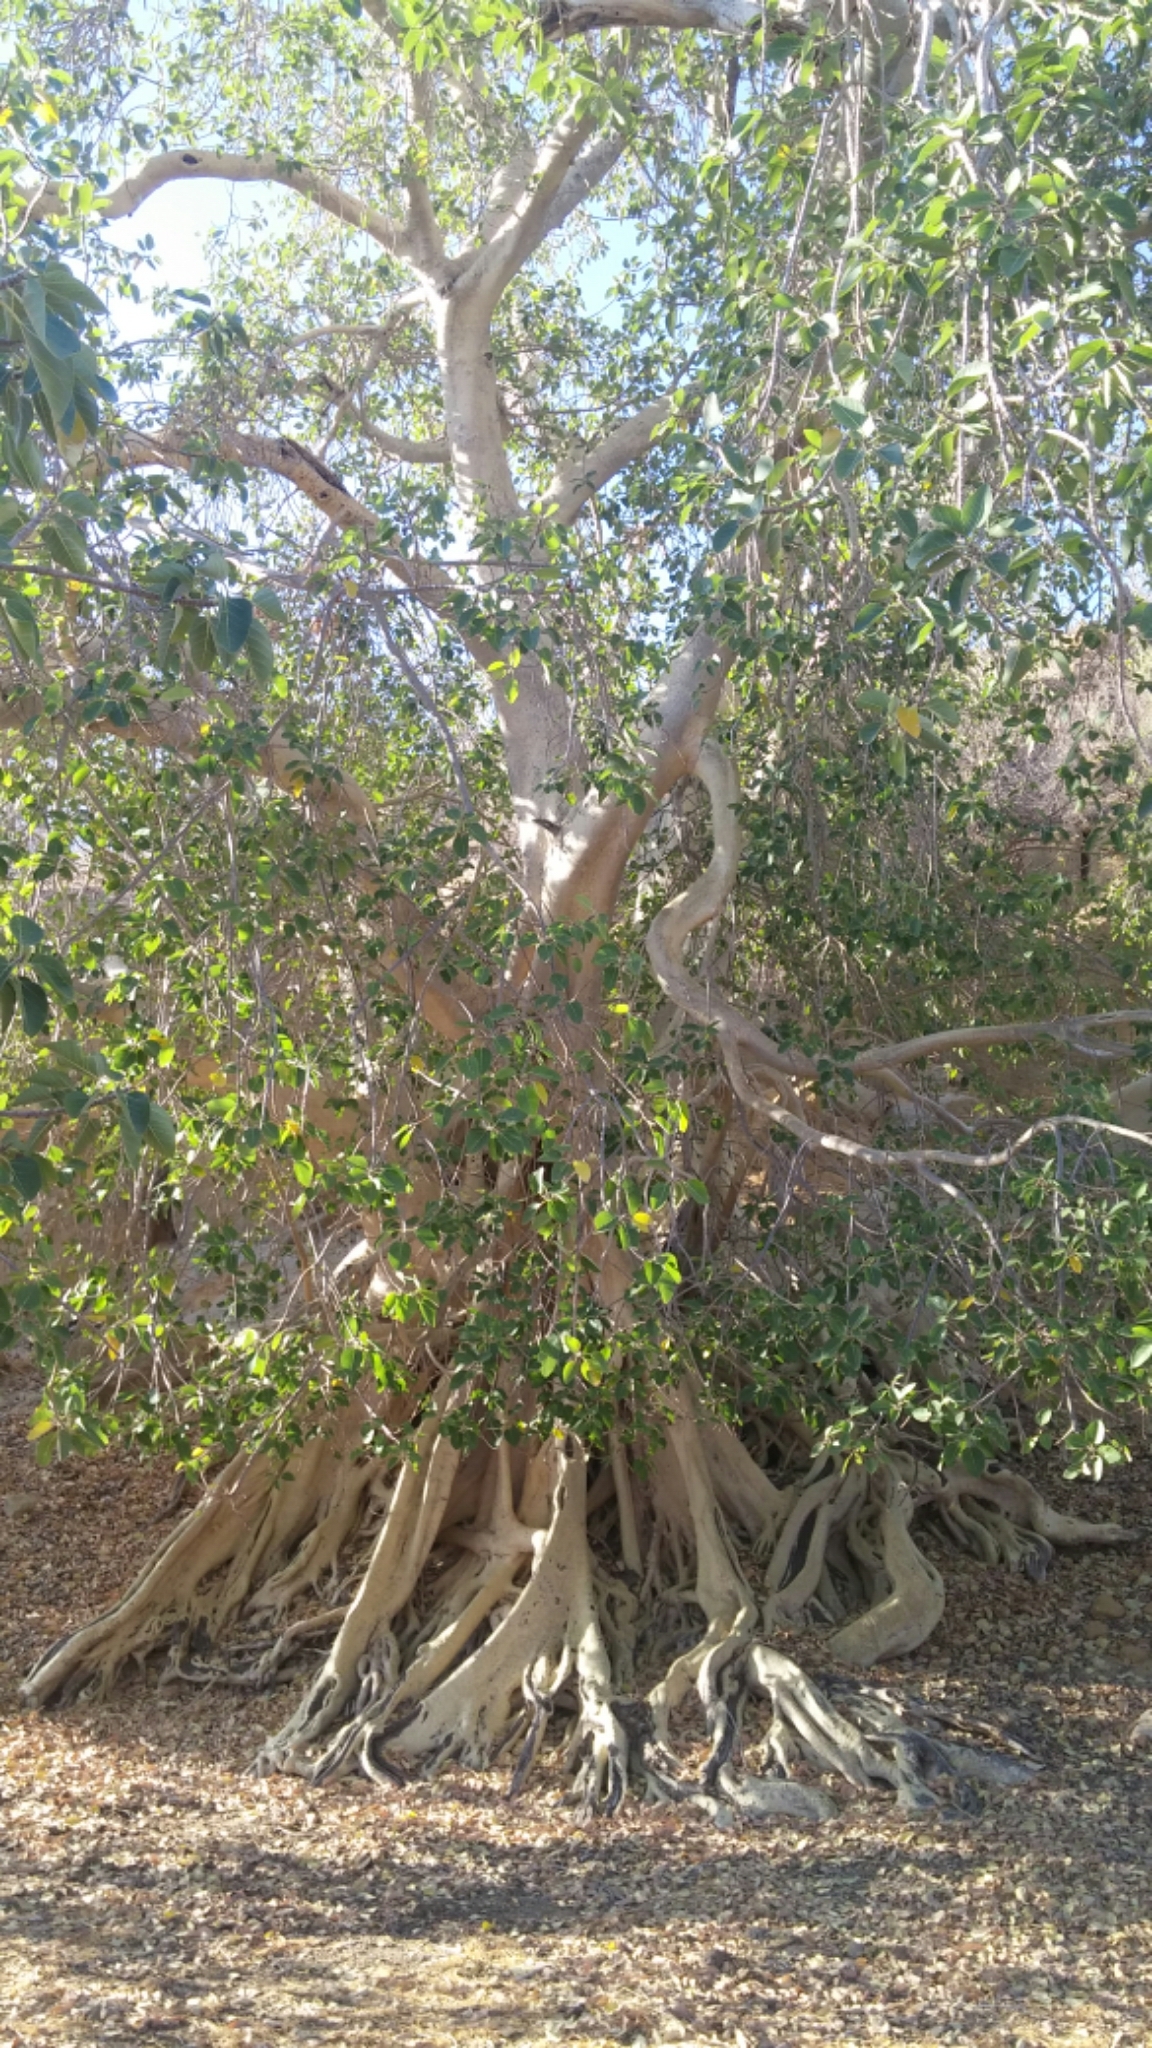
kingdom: Plantae
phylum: Tracheophyta
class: Magnoliopsida
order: Rosales
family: Moraceae
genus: Ficus
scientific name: Ficus petiolaris
